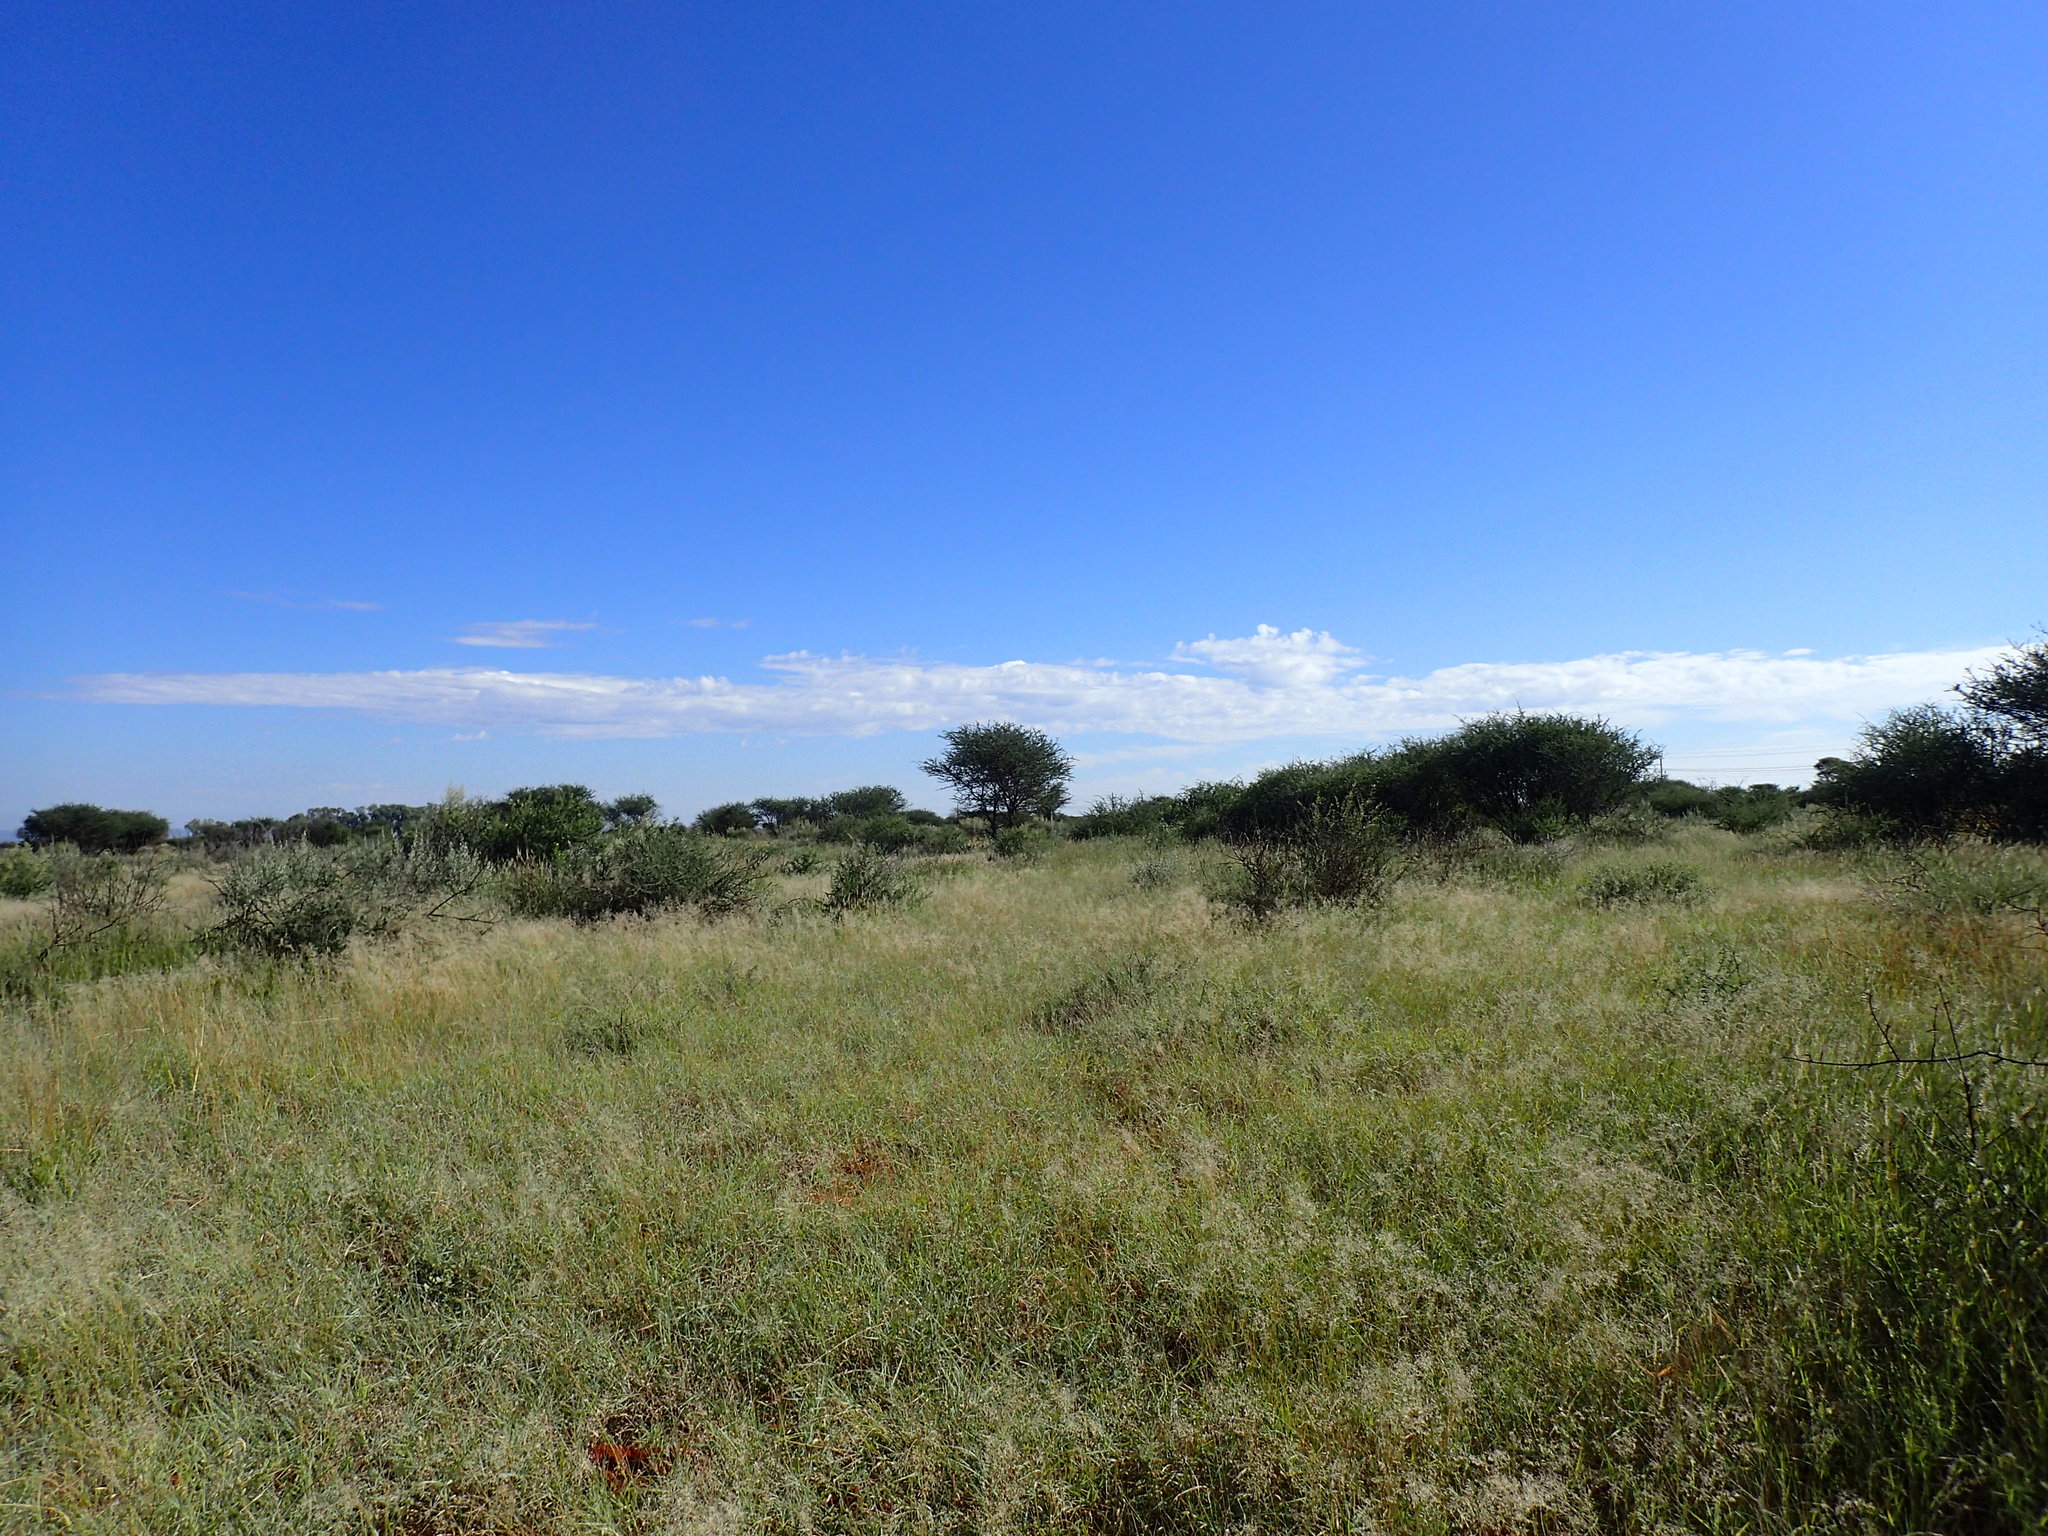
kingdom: Plantae
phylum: Tracheophyta
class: Magnoliopsida
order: Fabales
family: Fabaceae
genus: Senegalia
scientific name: Senegalia mellifera
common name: Hookthorn
